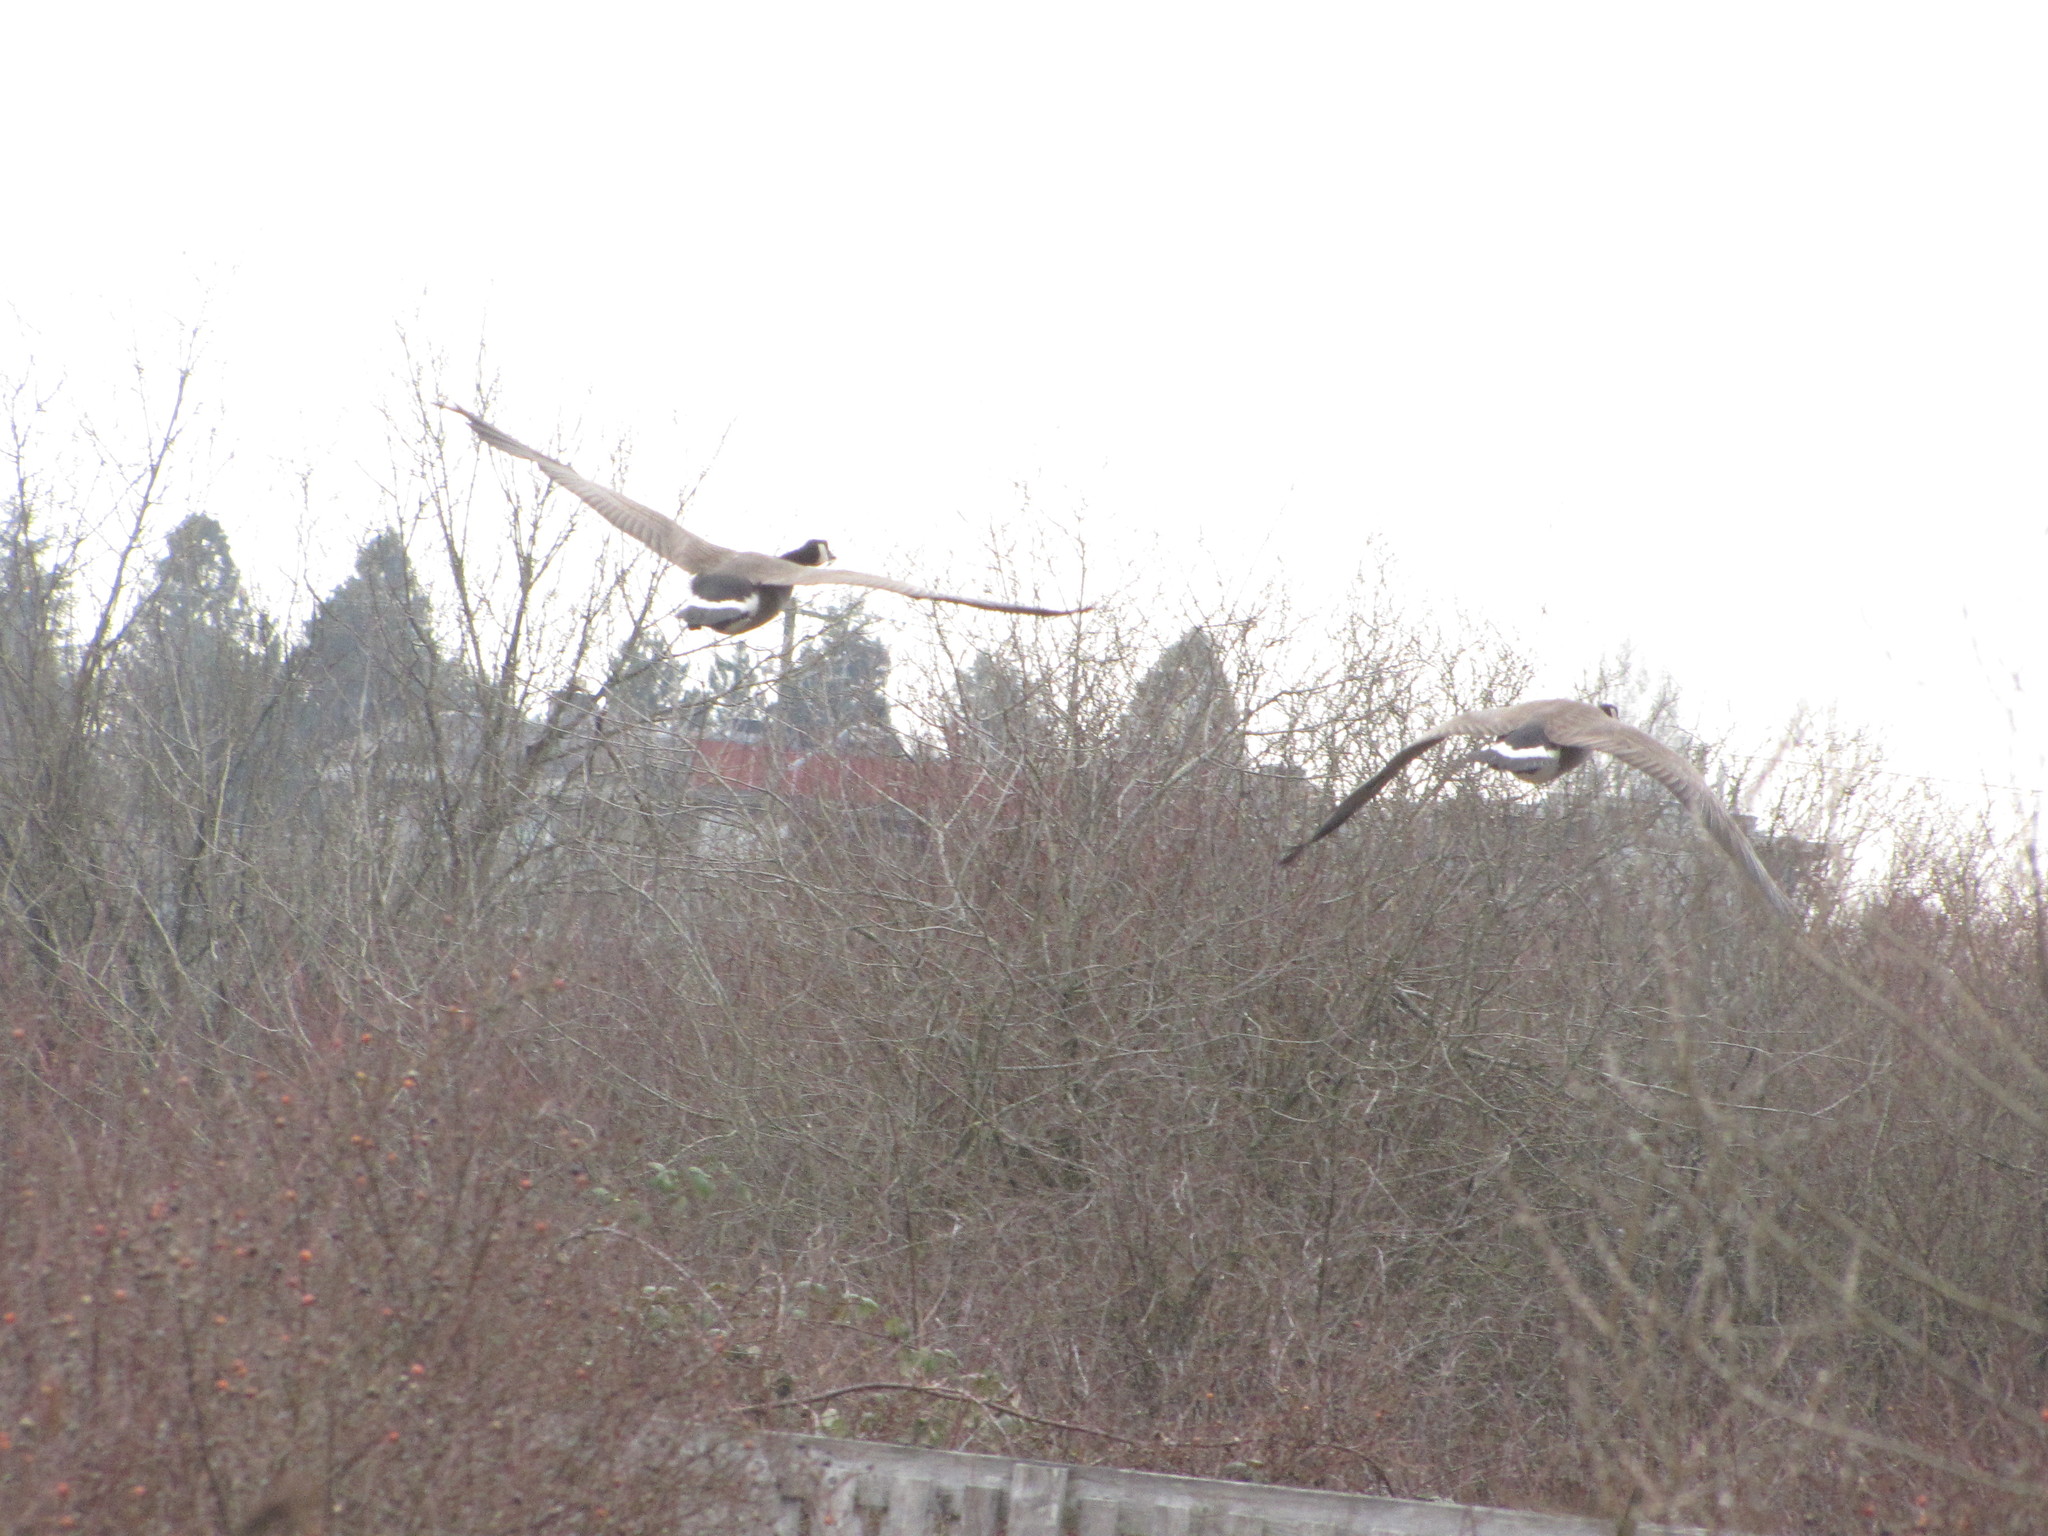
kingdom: Animalia
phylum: Chordata
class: Aves
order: Anseriformes
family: Anatidae
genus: Branta
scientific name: Branta canadensis
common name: Canada goose
